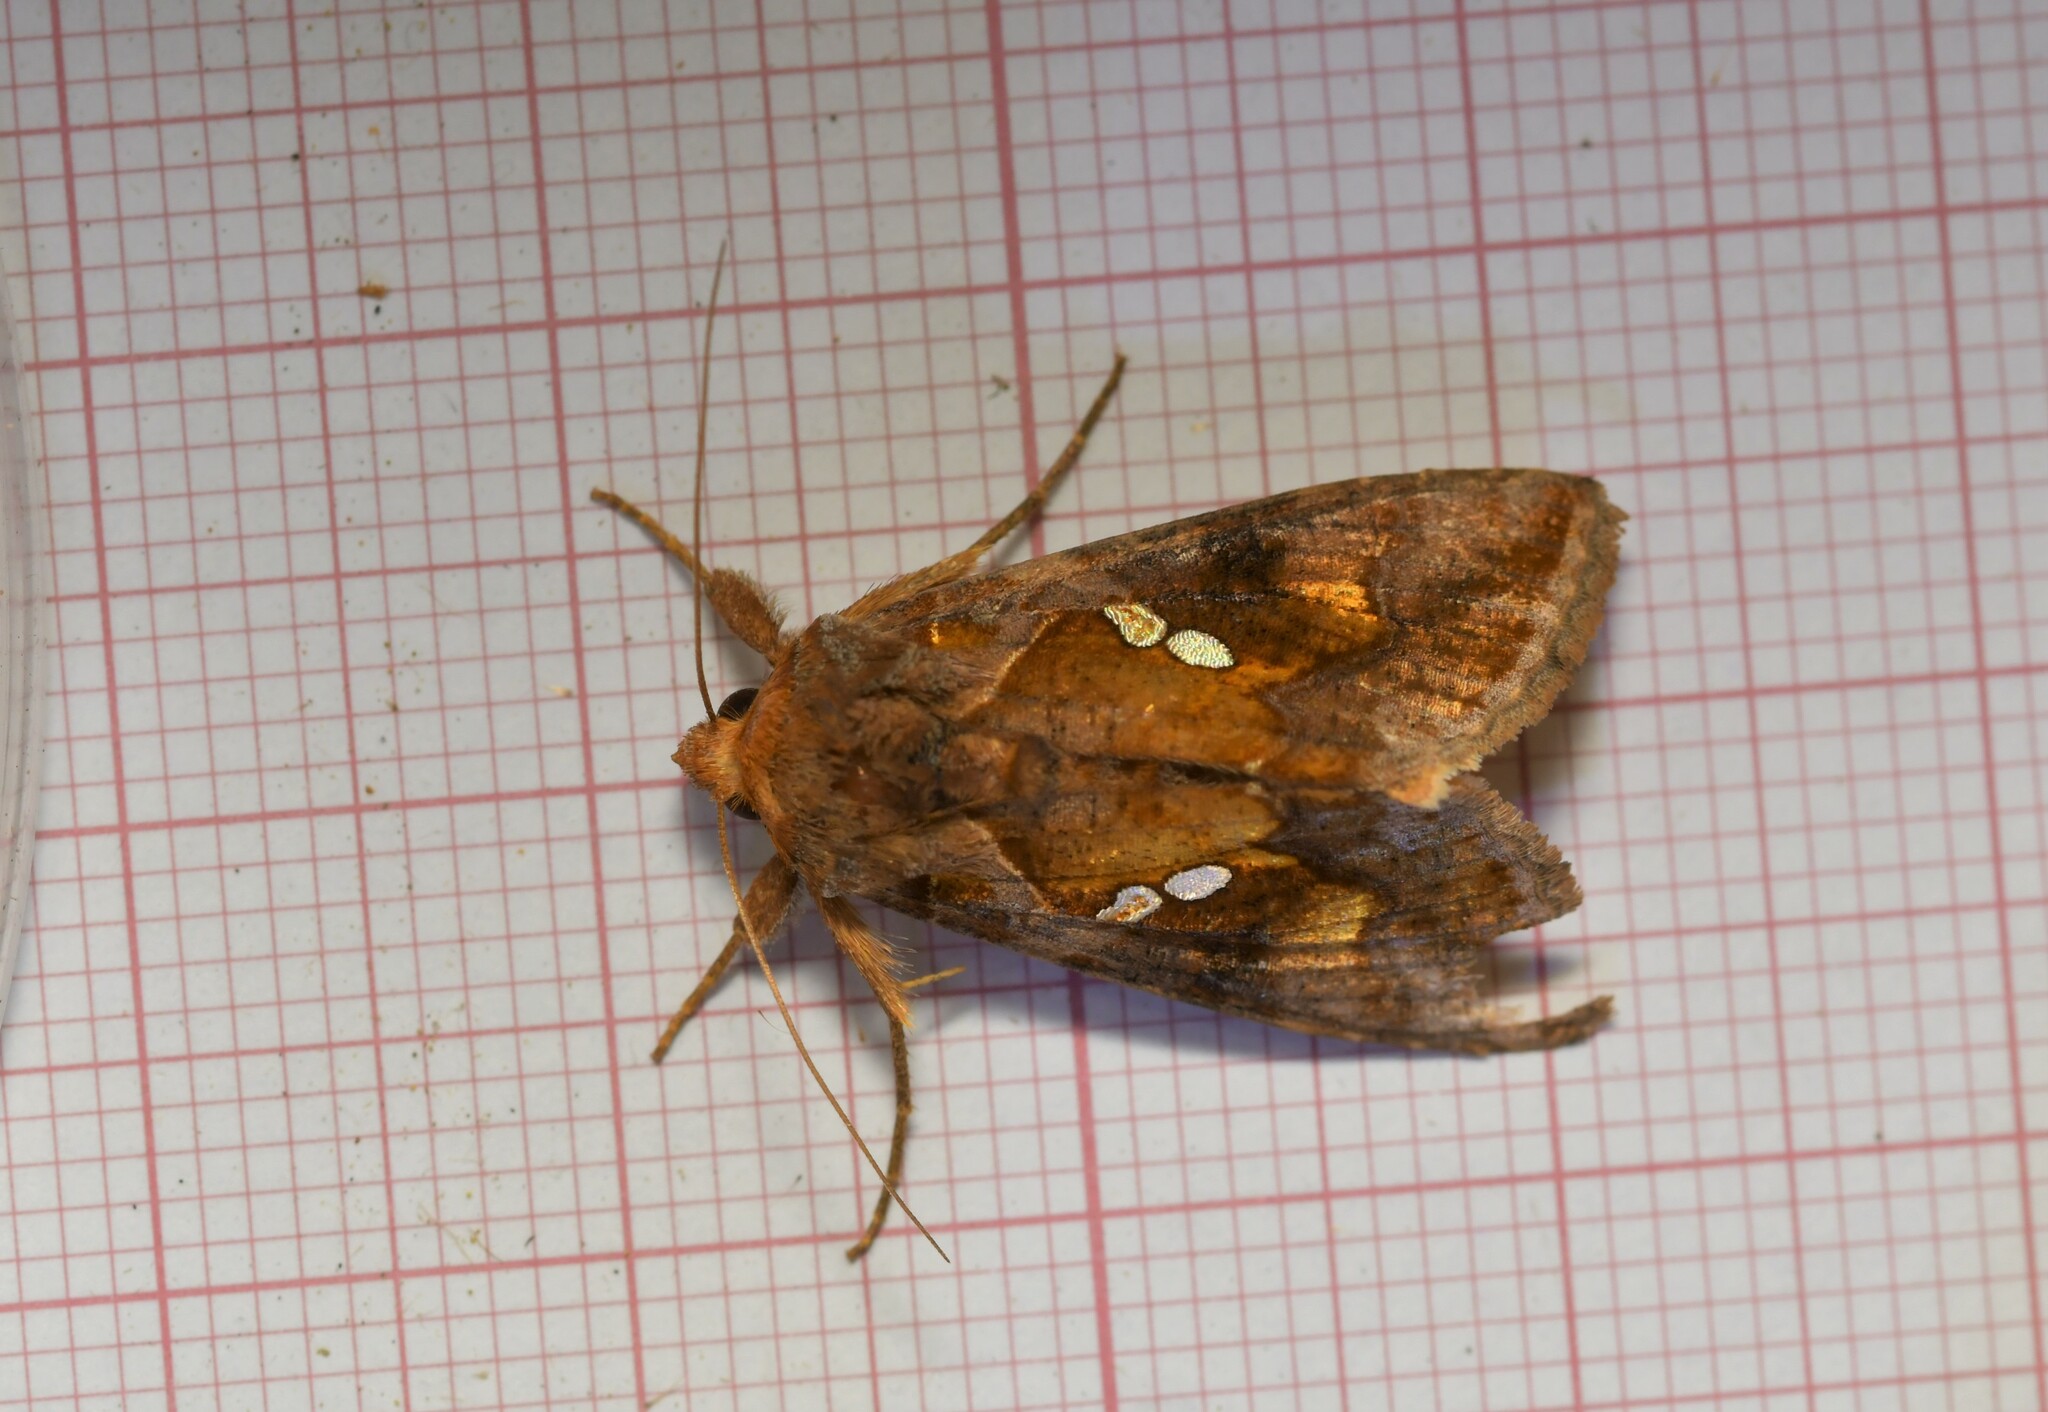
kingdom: Animalia
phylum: Arthropoda
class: Insecta
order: Lepidoptera
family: Noctuidae
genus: Chrysodeixis
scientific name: Chrysodeixis chalcites
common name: Golden twin-spot
